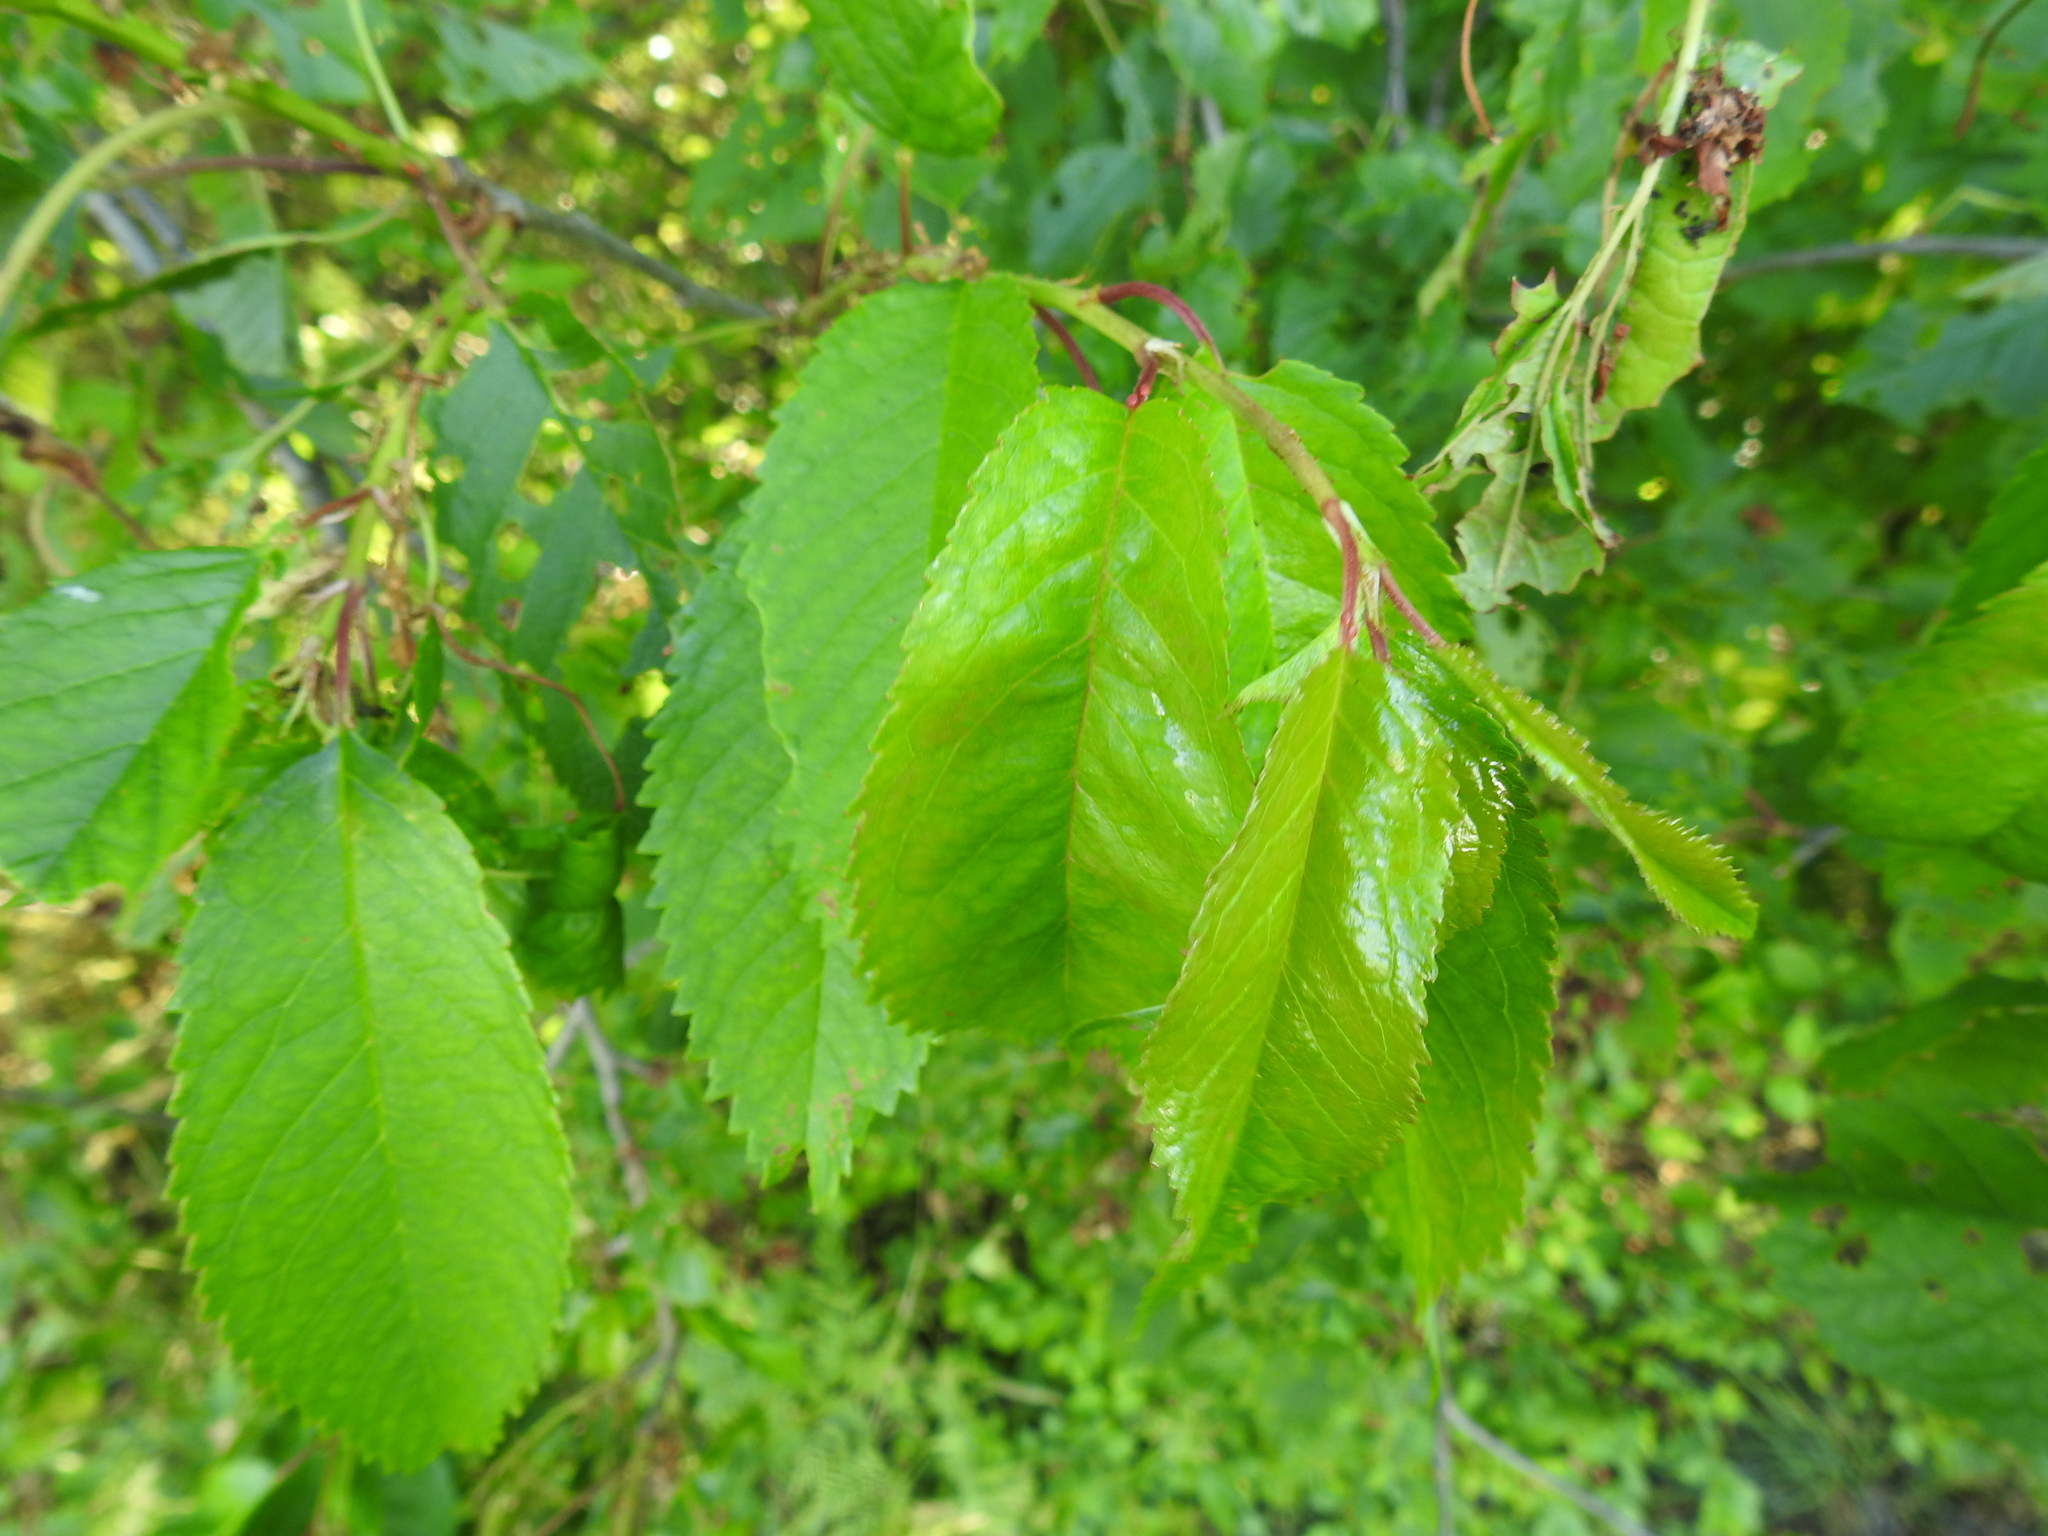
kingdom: Plantae
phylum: Tracheophyta
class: Magnoliopsida
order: Rosales
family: Rosaceae
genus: Prunus
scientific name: Prunus avium
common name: Sweet cherry
